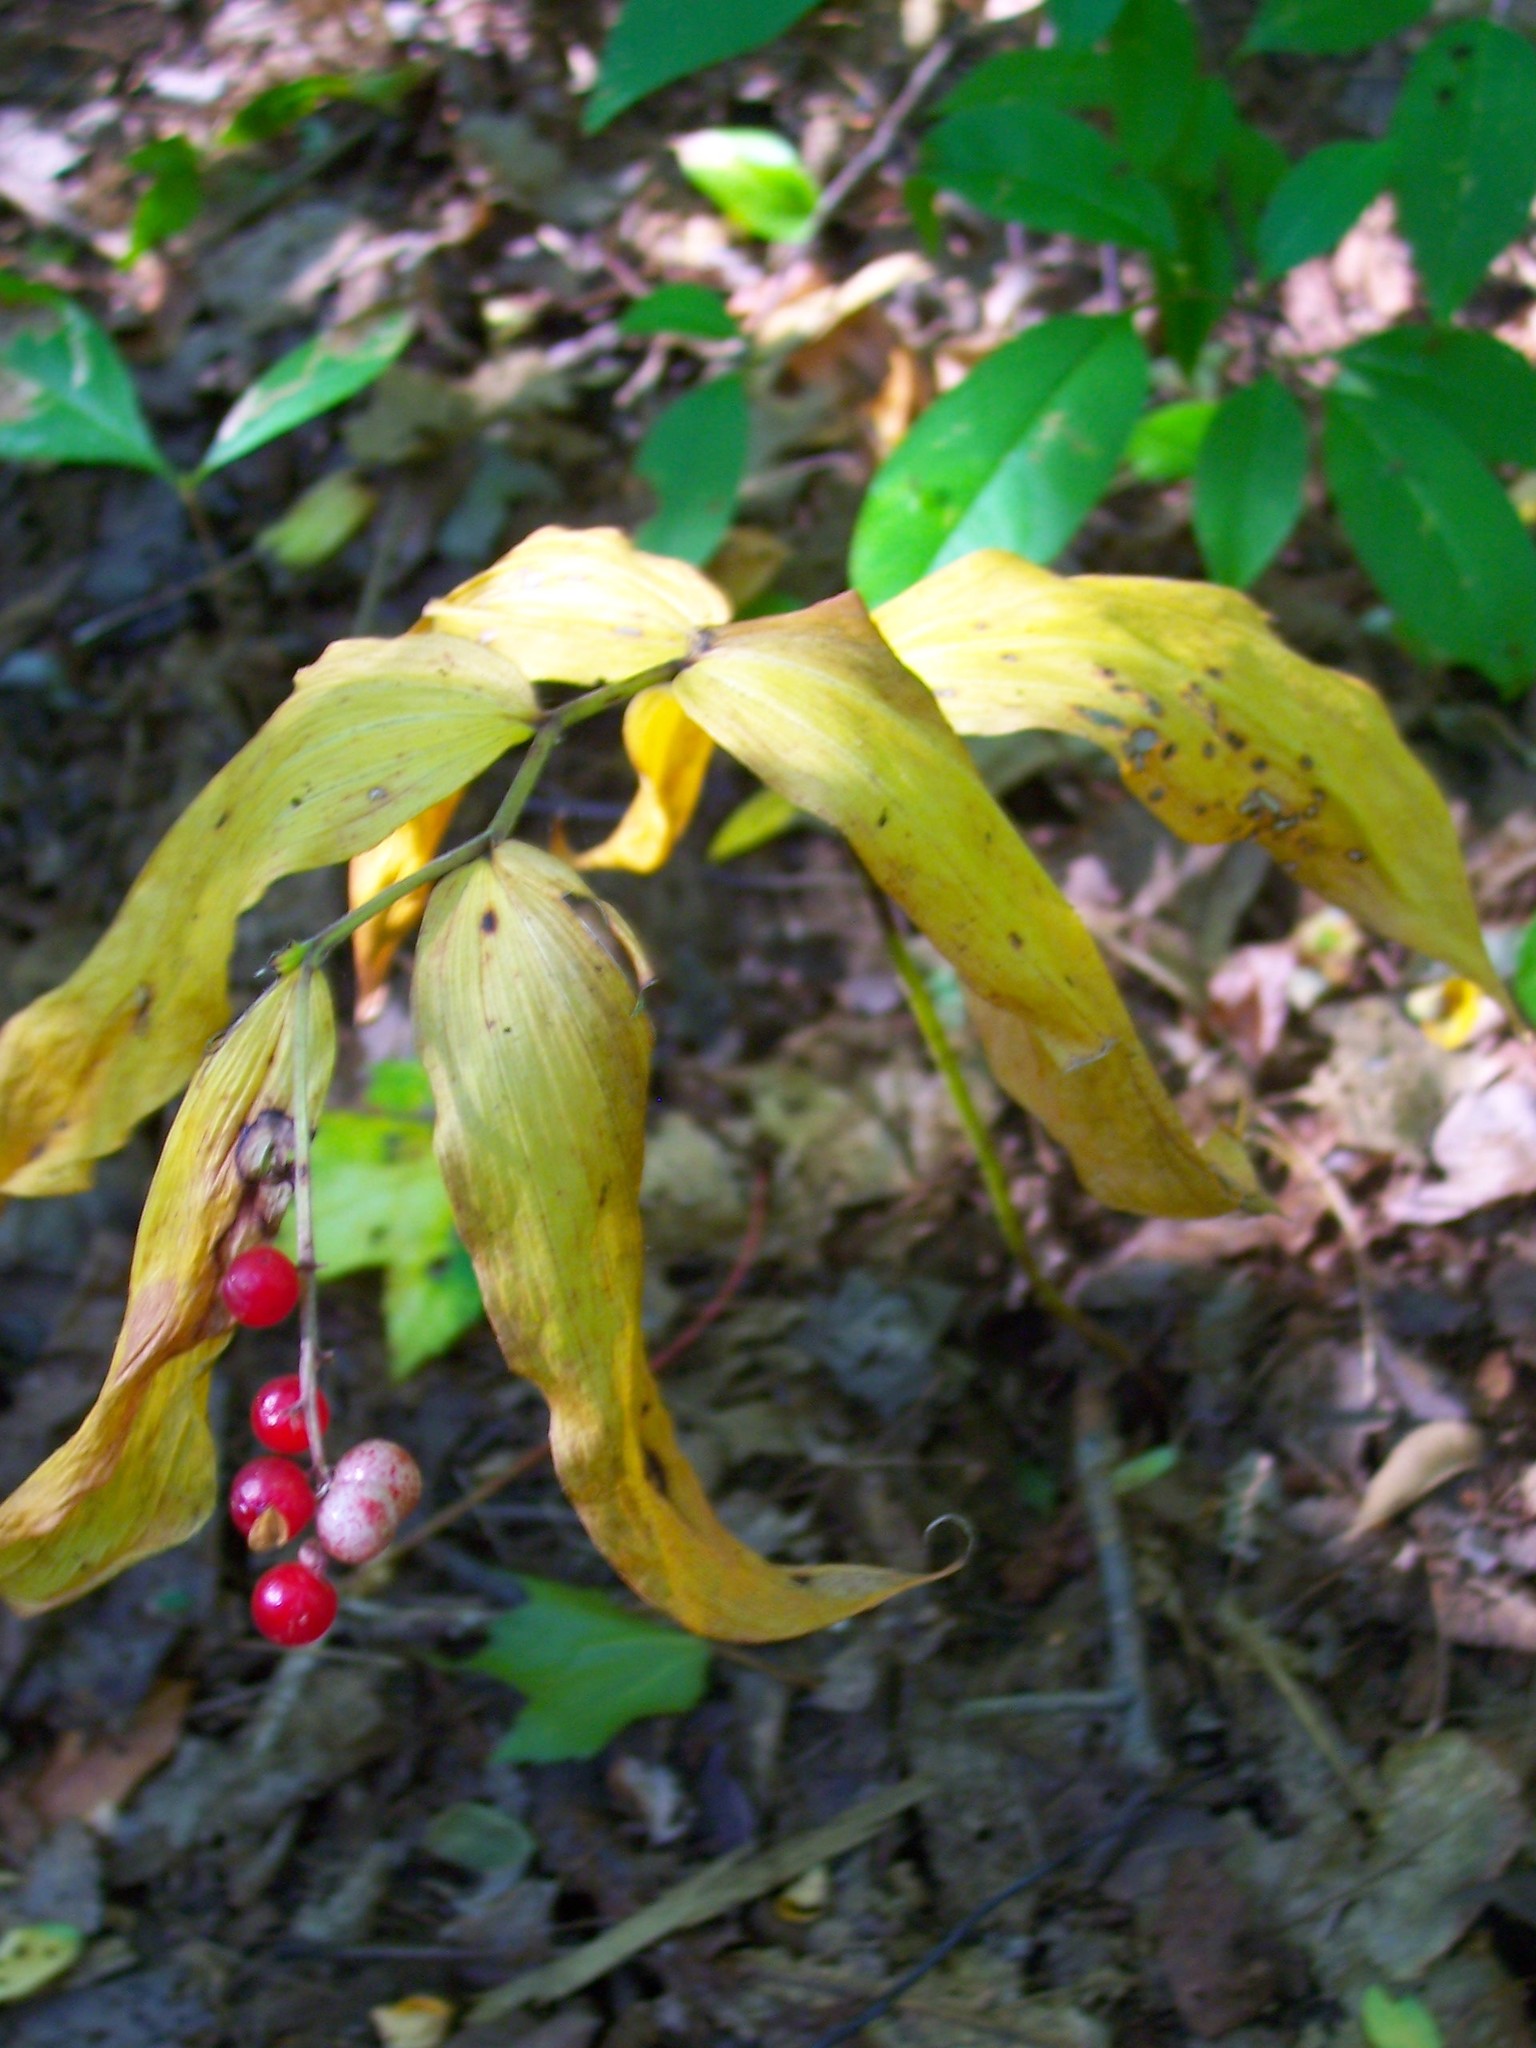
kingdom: Plantae
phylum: Tracheophyta
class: Liliopsida
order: Asparagales
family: Asparagaceae
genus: Maianthemum
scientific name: Maianthemum racemosum
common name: False spikenard
